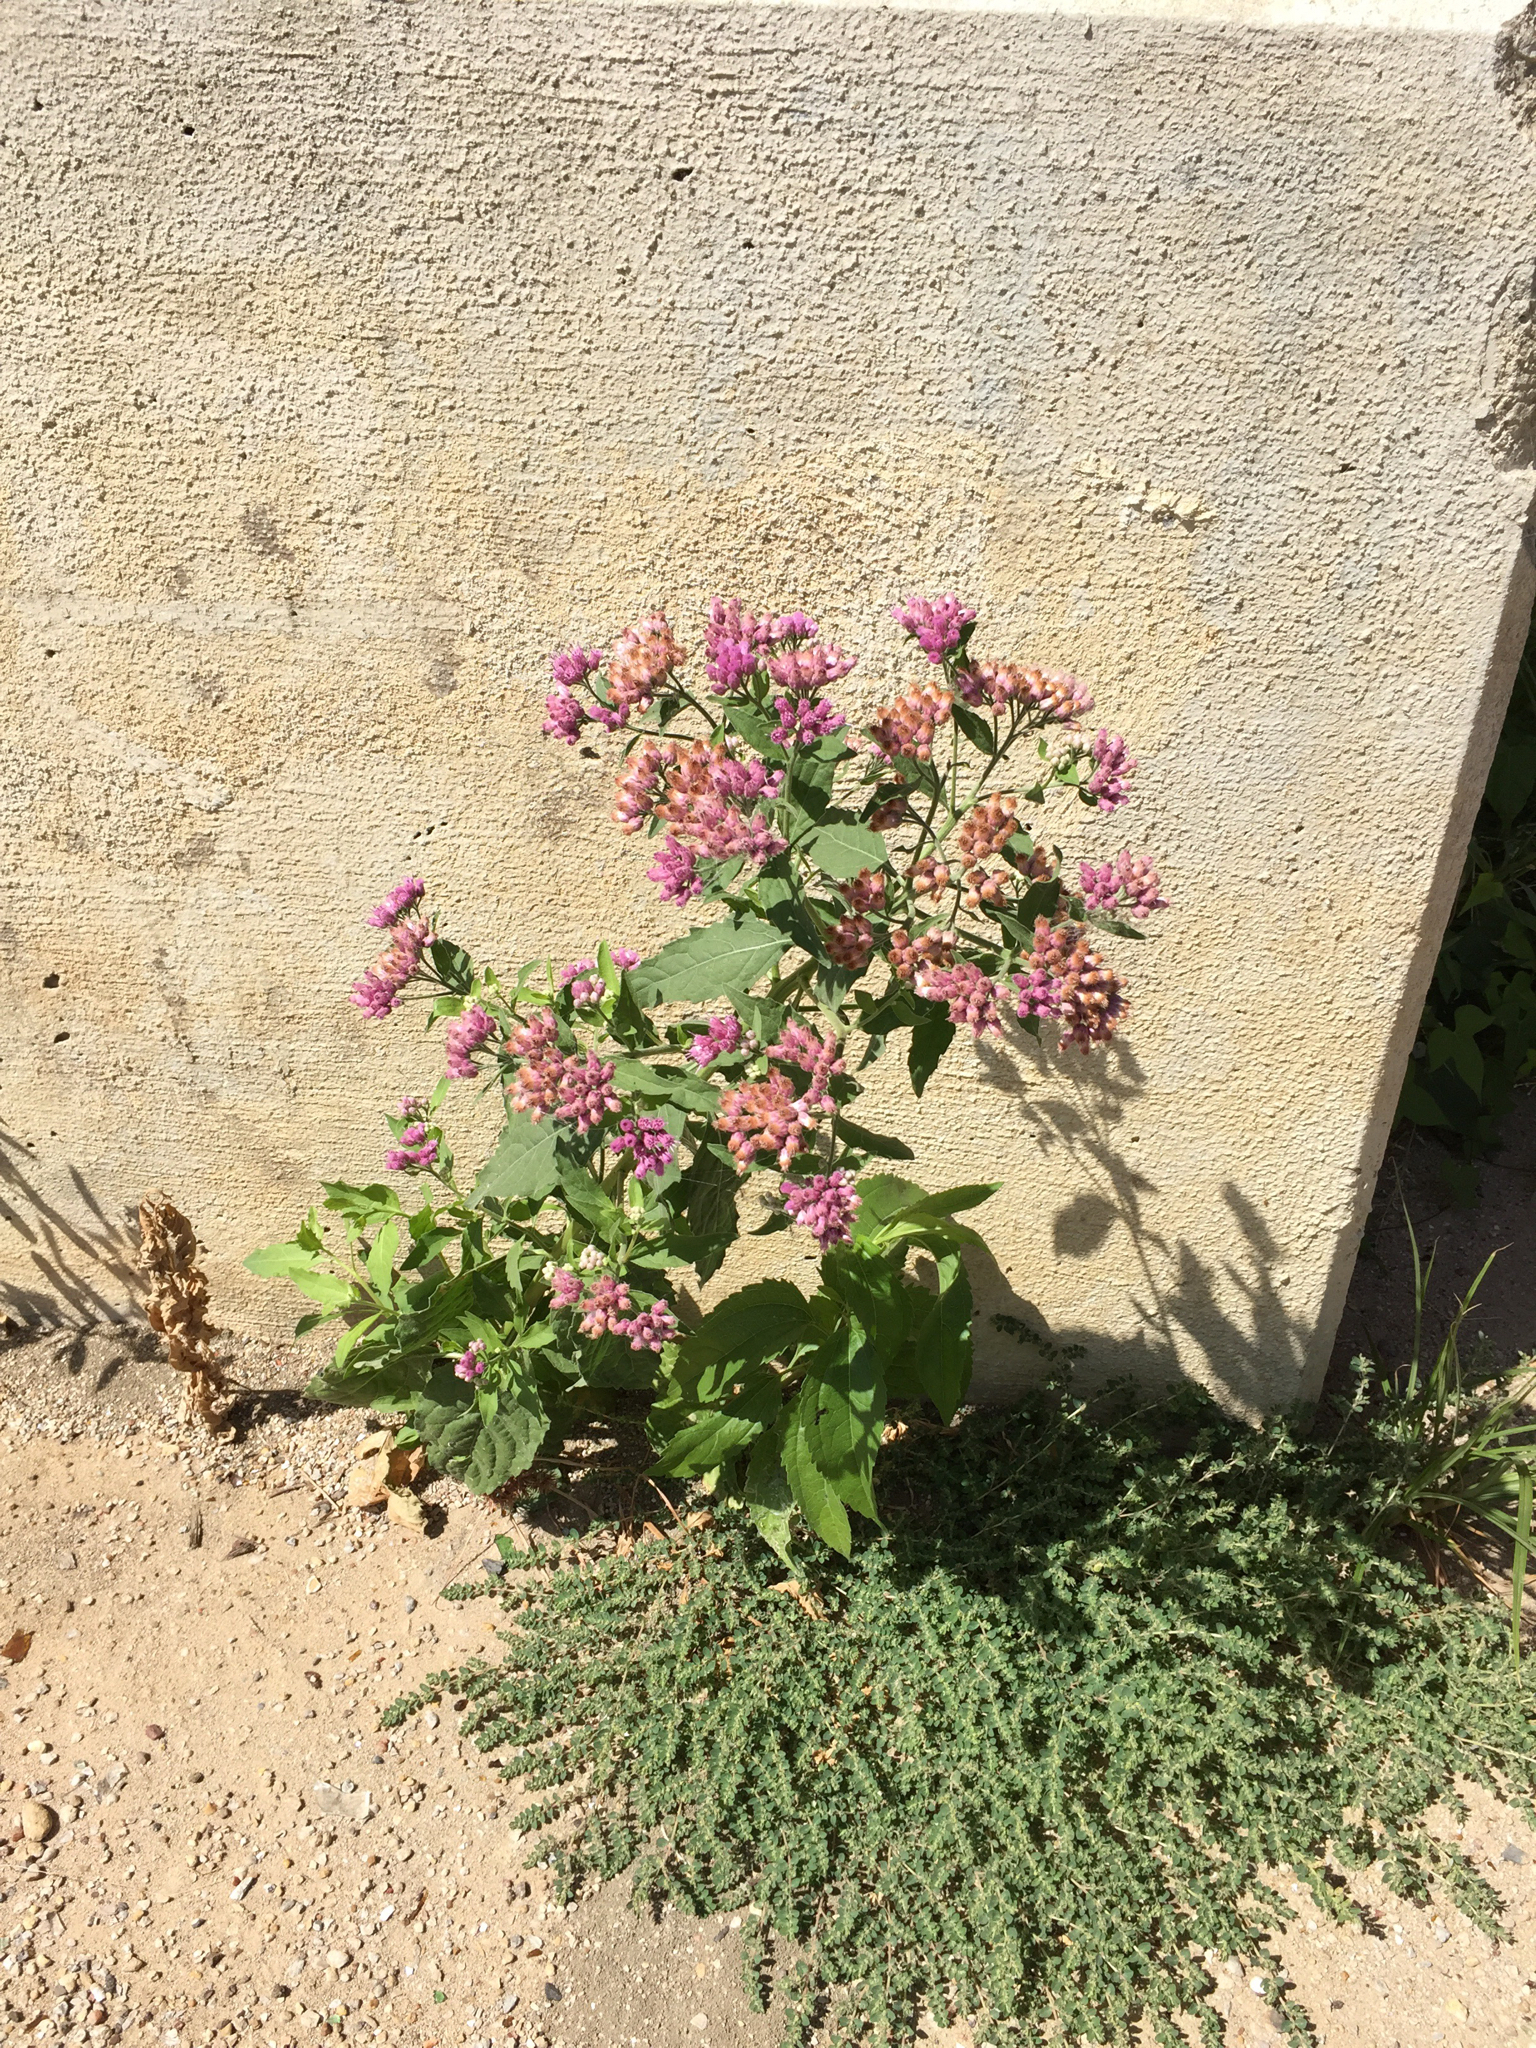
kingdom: Plantae
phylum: Tracheophyta
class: Magnoliopsida
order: Asterales
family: Asteraceae
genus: Pluchea
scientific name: Pluchea odorata
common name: Saltmarsh fleabane
